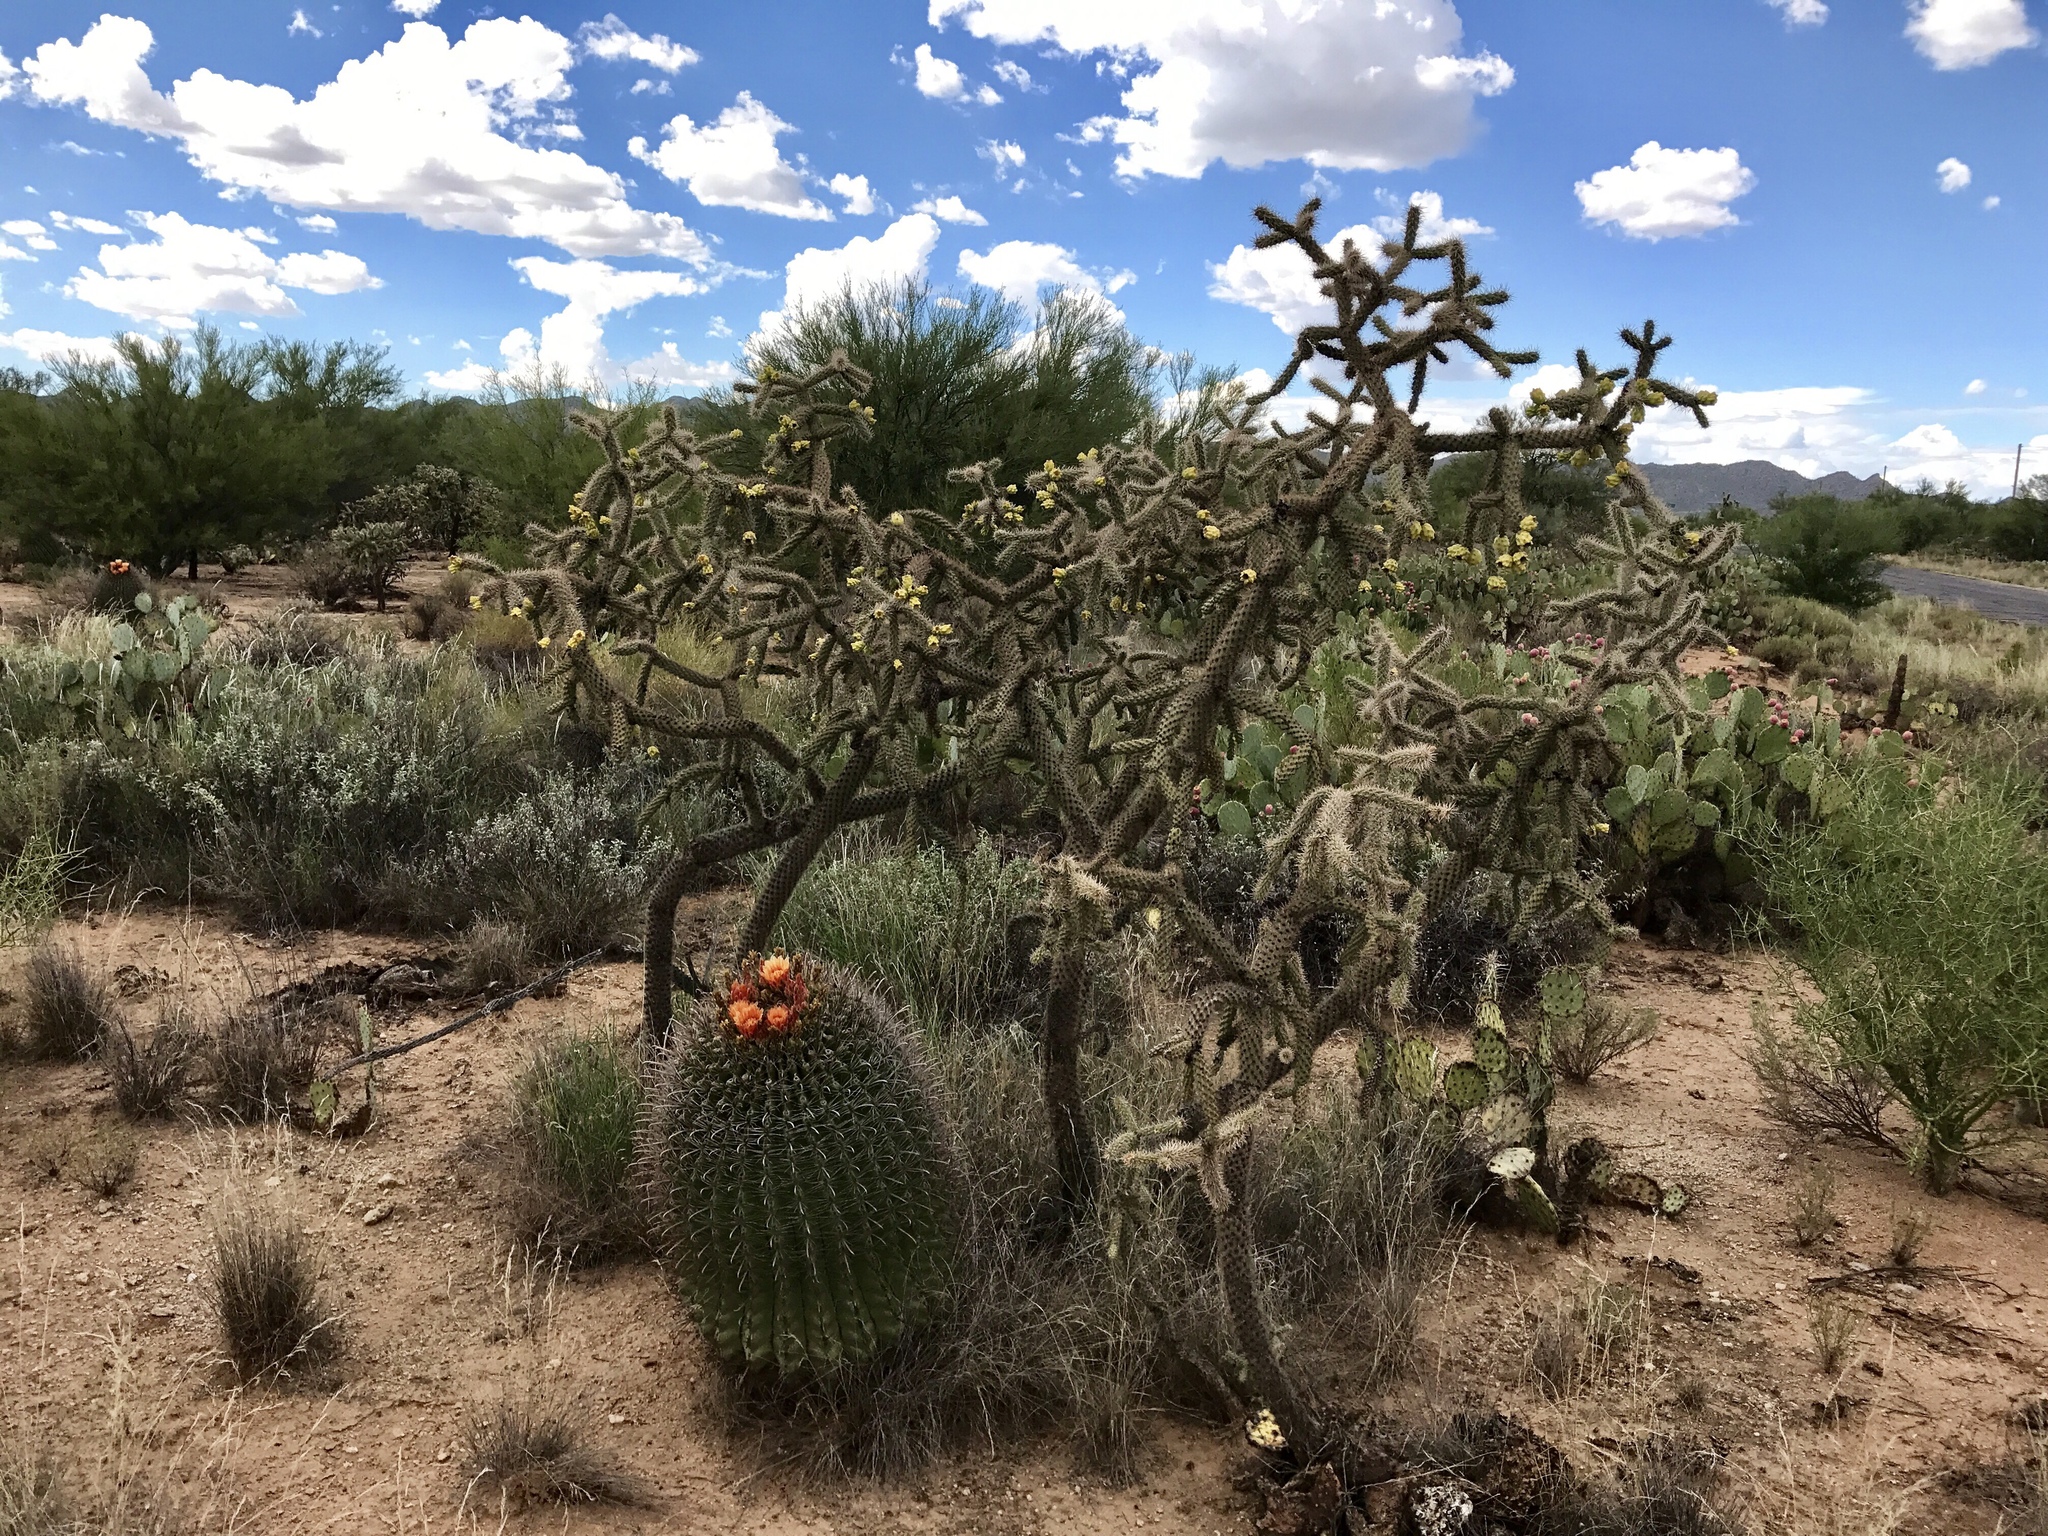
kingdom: Plantae
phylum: Tracheophyta
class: Magnoliopsida
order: Caryophyllales
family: Cactaceae
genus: Cylindropuntia
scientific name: Cylindropuntia imbricata
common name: Candelabrum cactus
